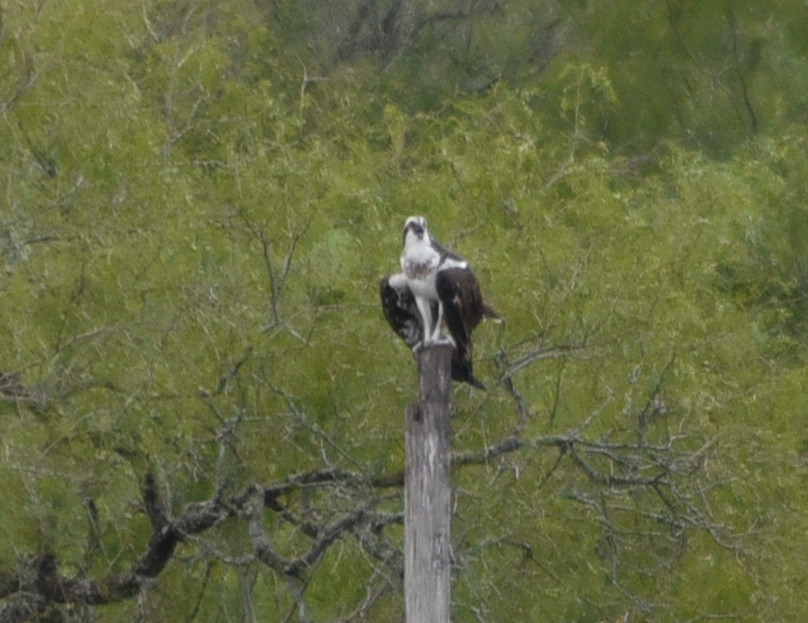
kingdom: Animalia
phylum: Chordata
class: Aves
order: Accipitriformes
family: Pandionidae
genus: Pandion
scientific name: Pandion haliaetus
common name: Osprey
